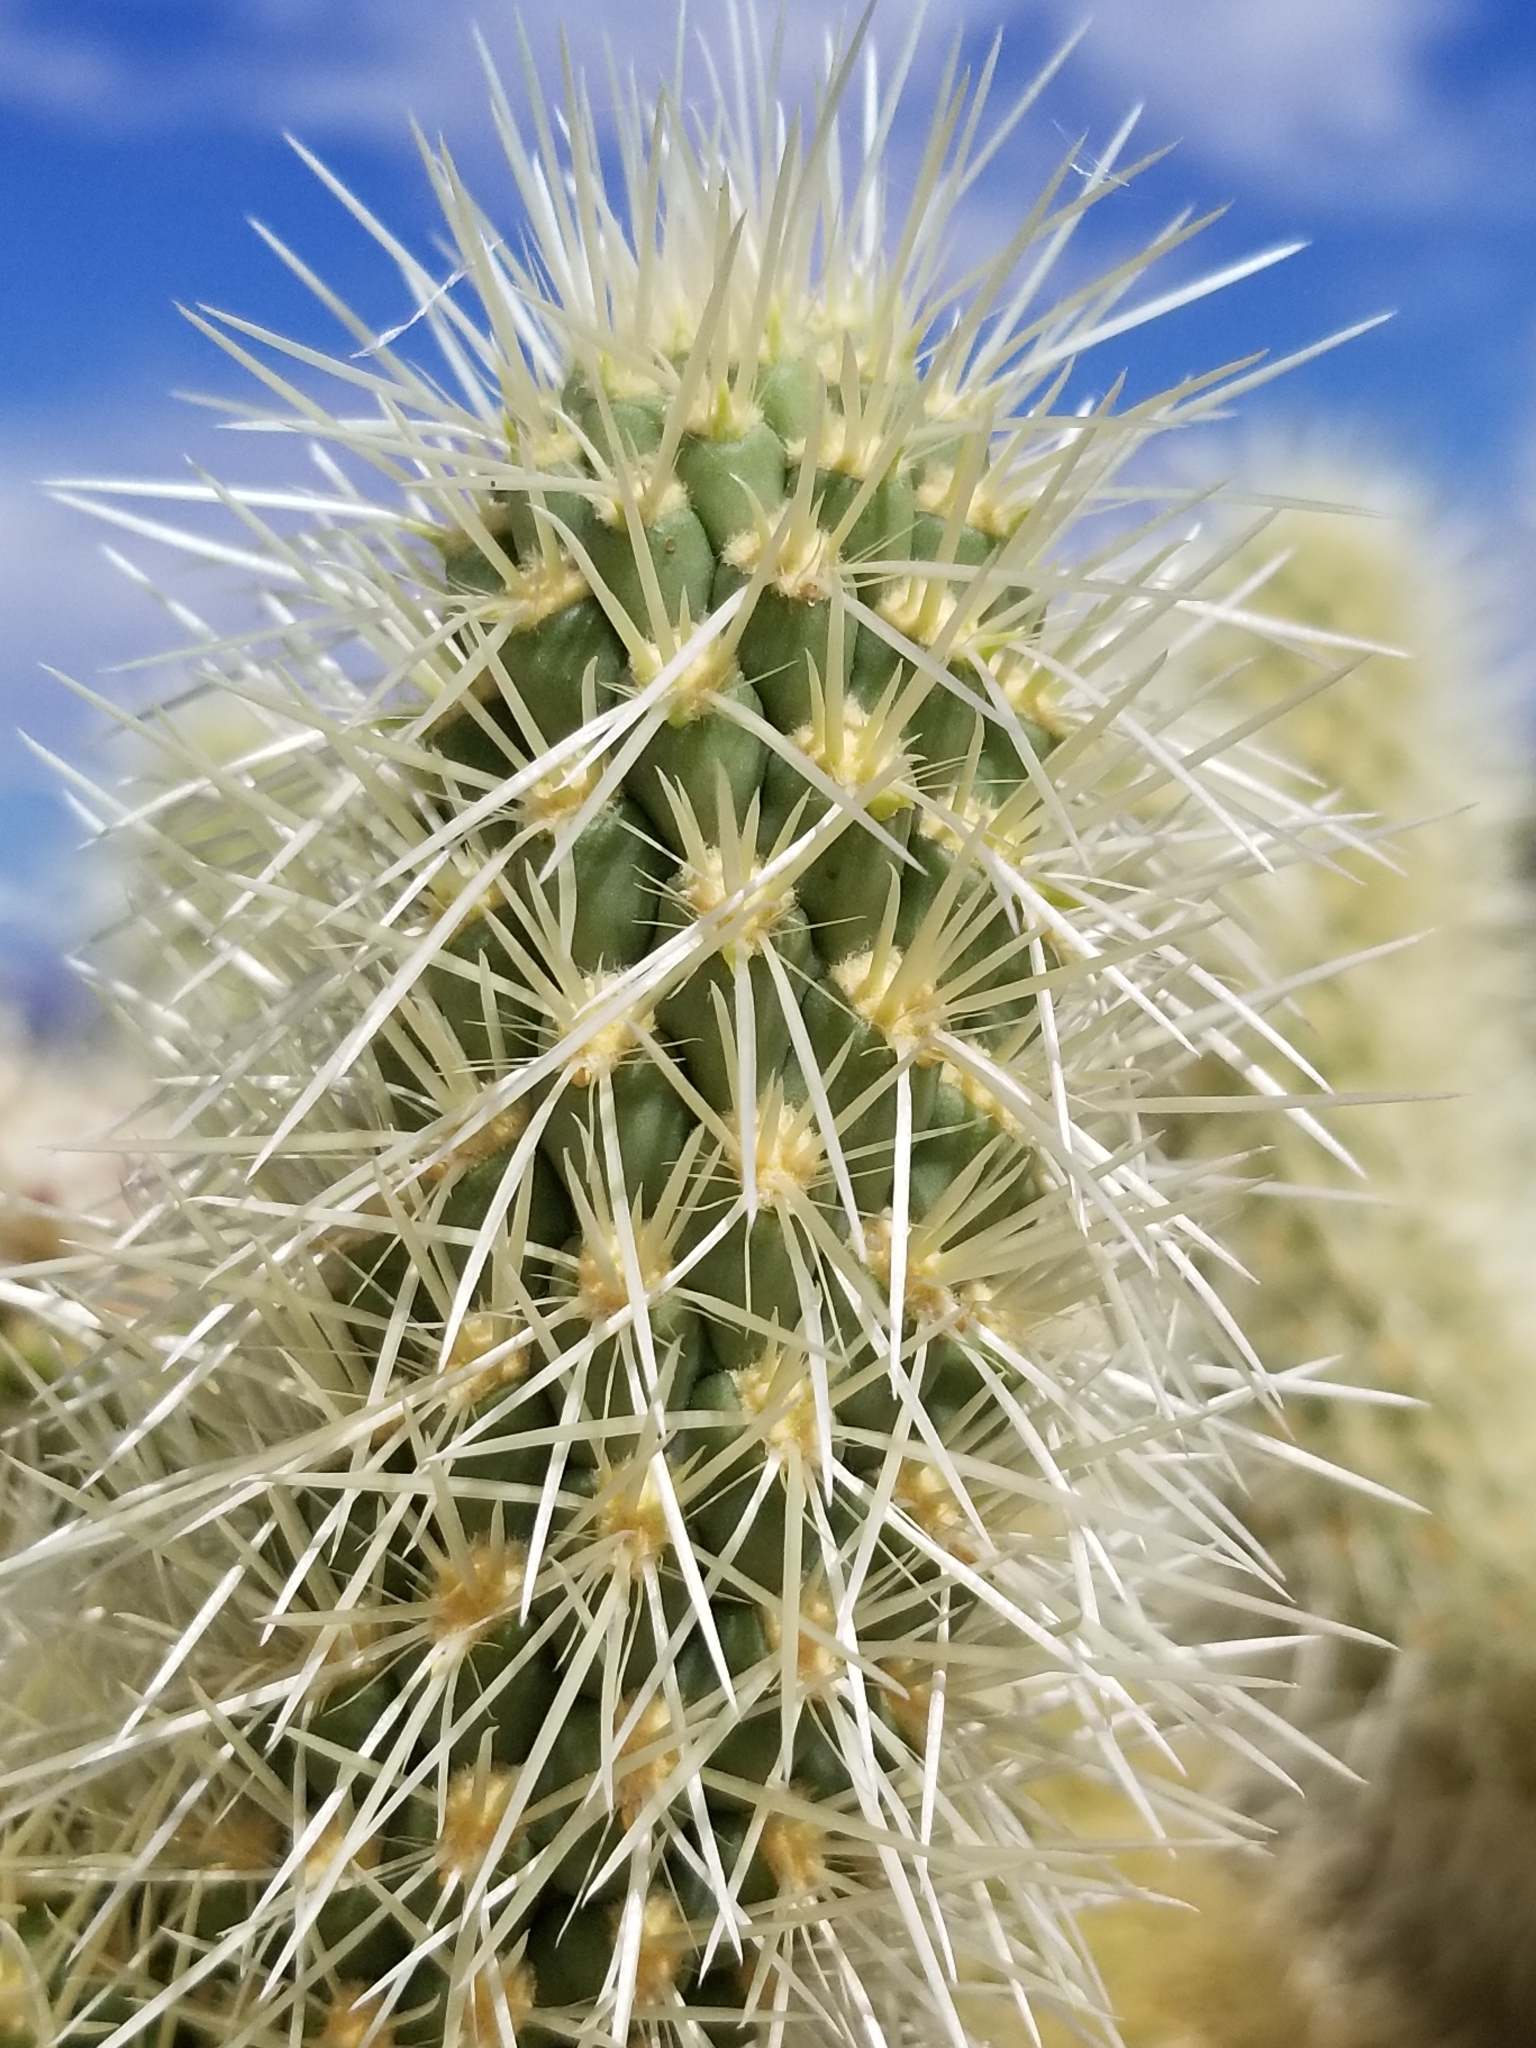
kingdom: Plantae
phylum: Tracheophyta
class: Magnoliopsida
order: Caryophyllales
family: Cactaceae
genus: Cylindropuntia
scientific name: Cylindropuntia fosbergii
